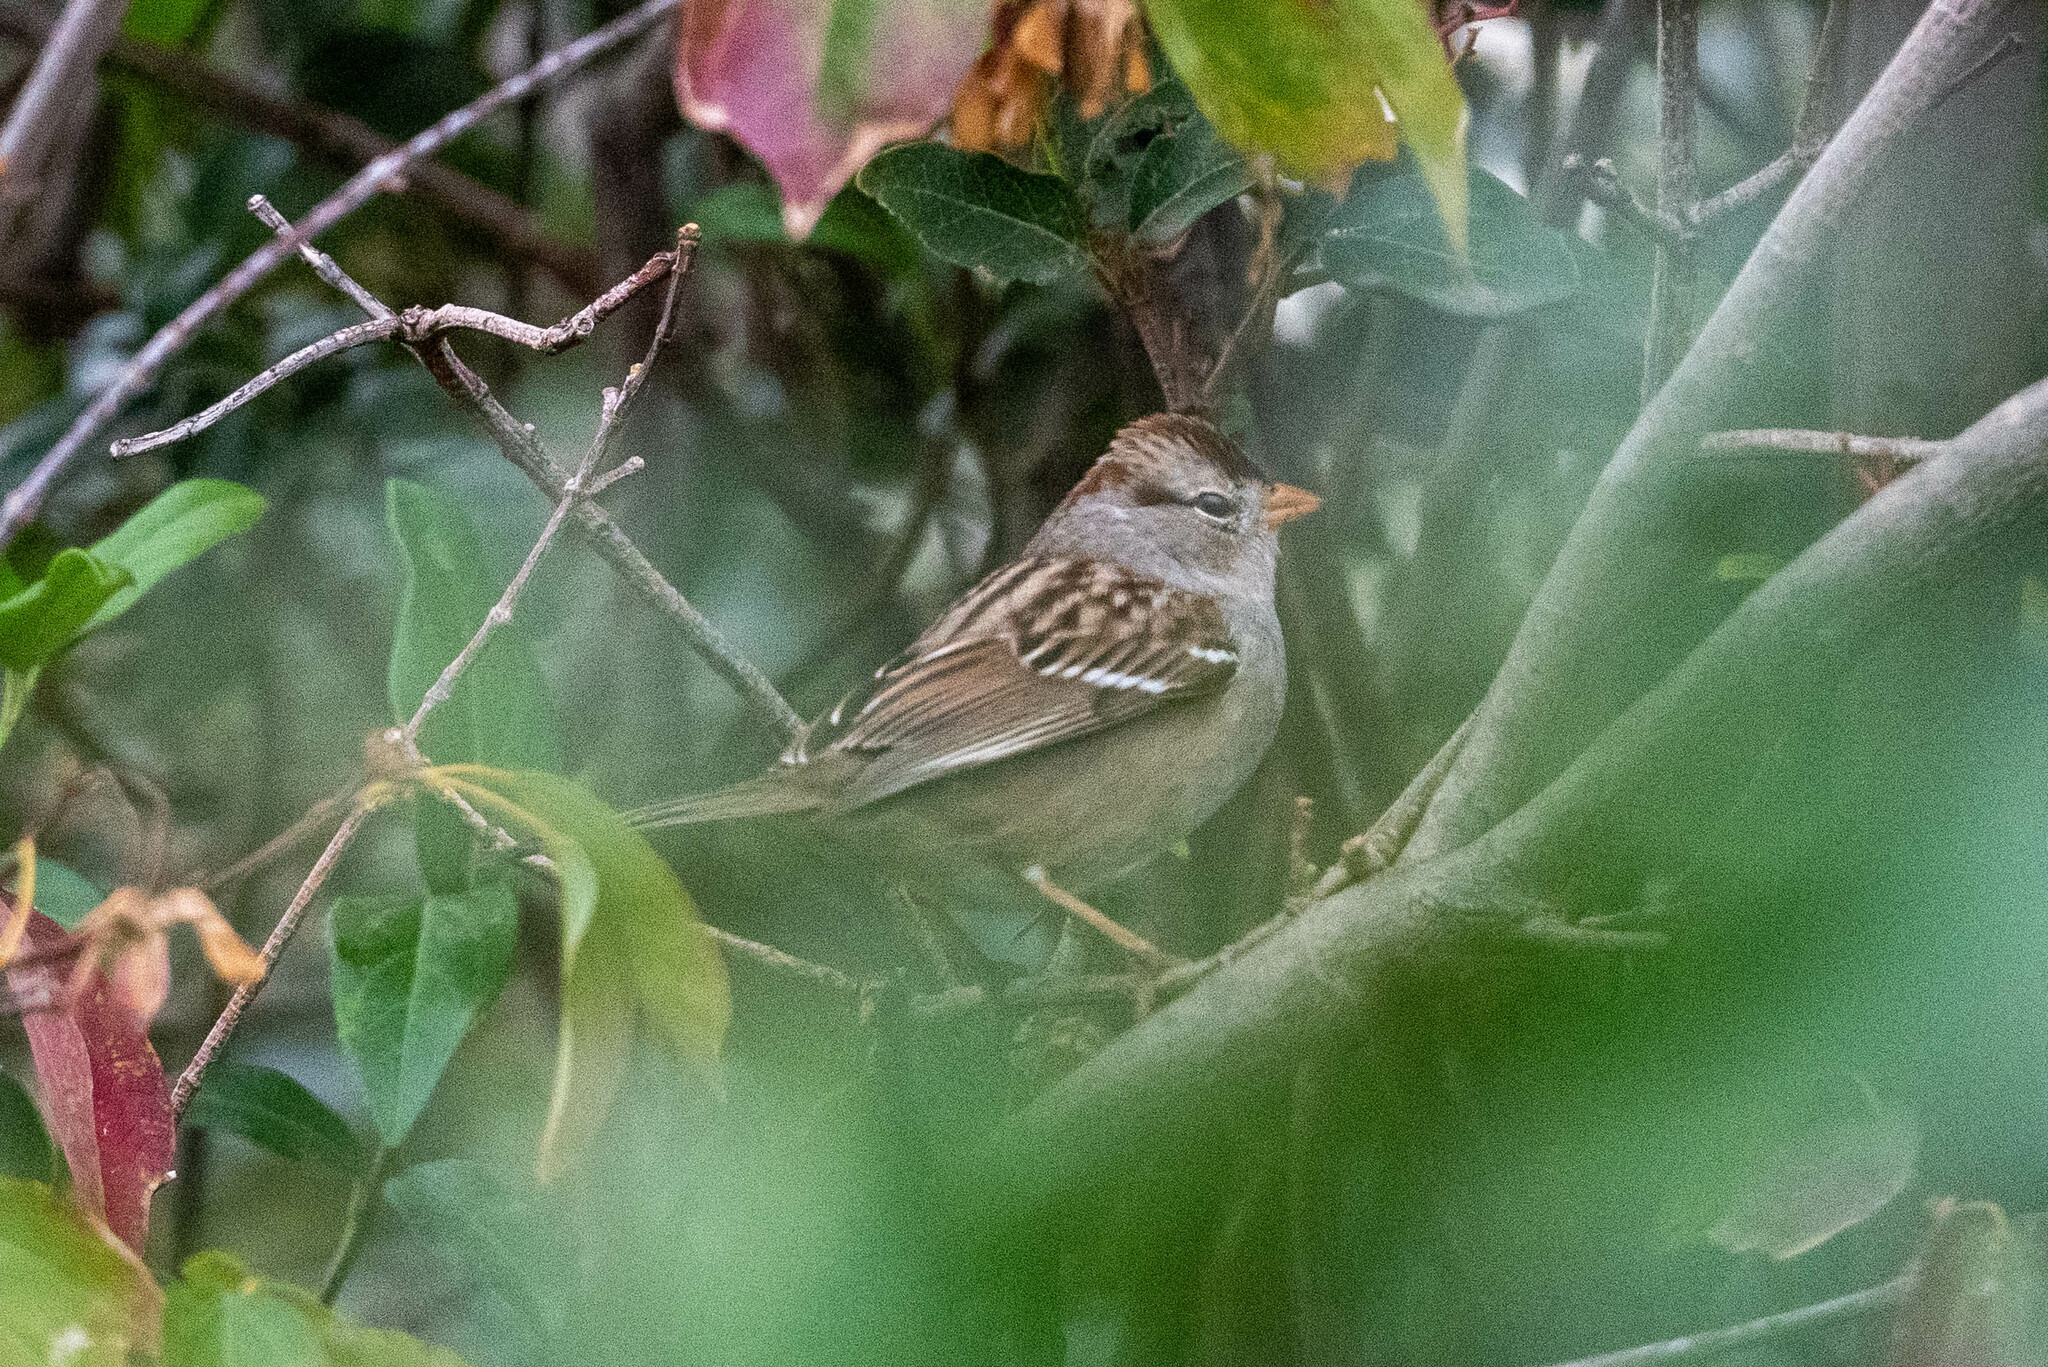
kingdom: Animalia
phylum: Chordata
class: Aves
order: Passeriformes
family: Passerellidae
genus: Zonotrichia
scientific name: Zonotrichia leucophrys
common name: White-crowned sparrow
